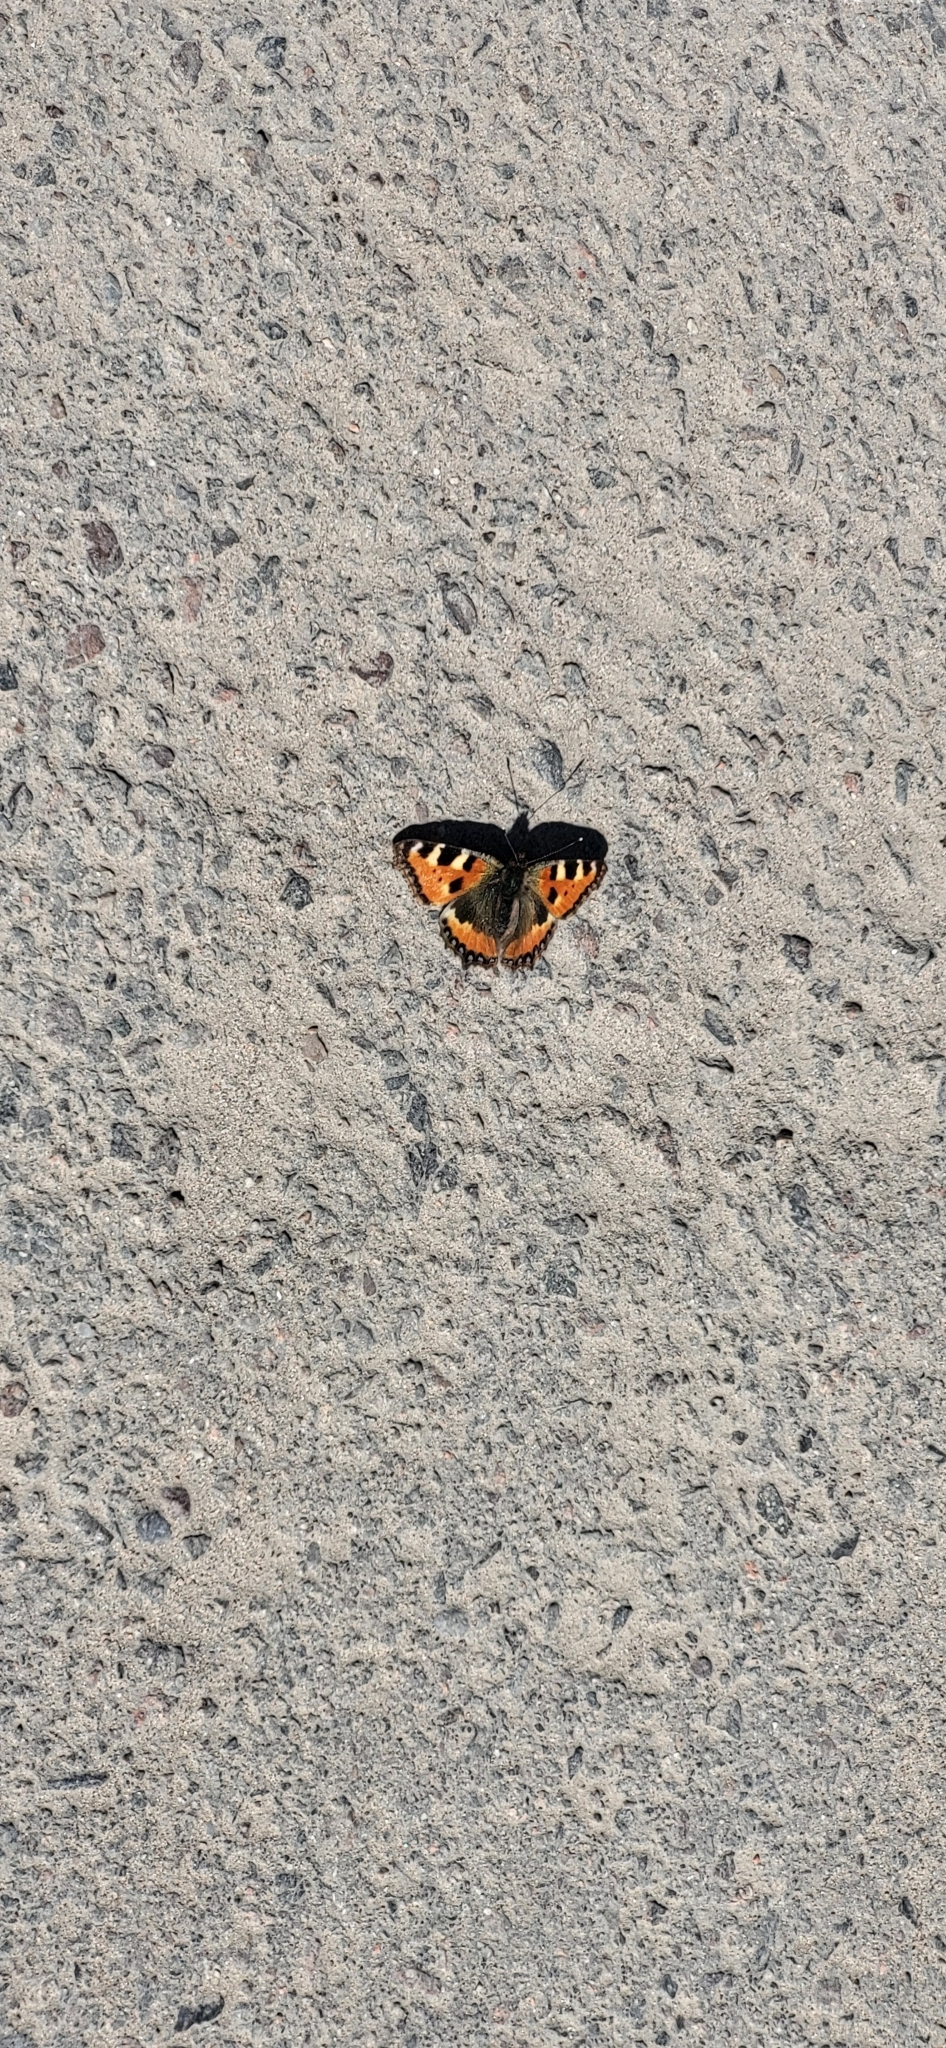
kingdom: Animalia
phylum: Arthropoda
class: Insecta
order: Lepidoptera
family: Nymphalidae
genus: Aglais
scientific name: Aglais urticae
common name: Small tortoiseshell
